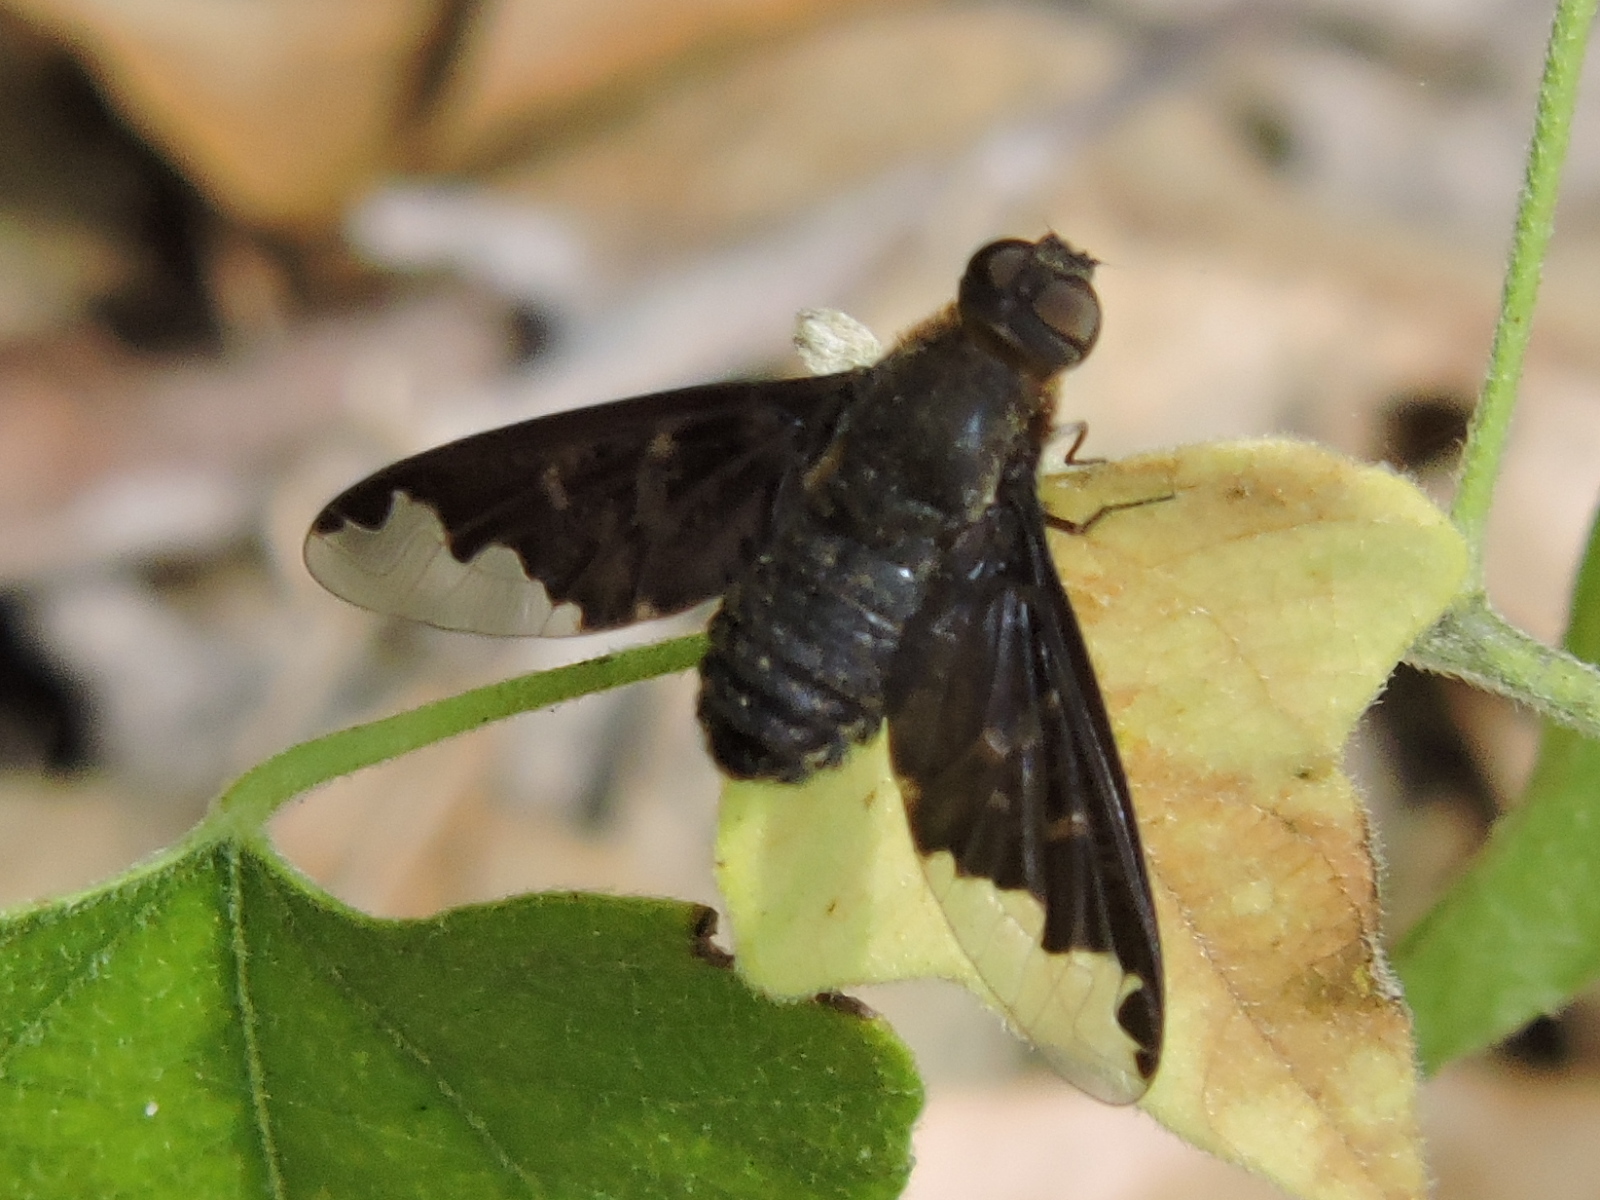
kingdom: Animalia
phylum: Arthropoda
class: Insecta
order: Diptera
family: Bombyliidae
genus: Hemipenthes
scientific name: Hemipenthes sinuosus
